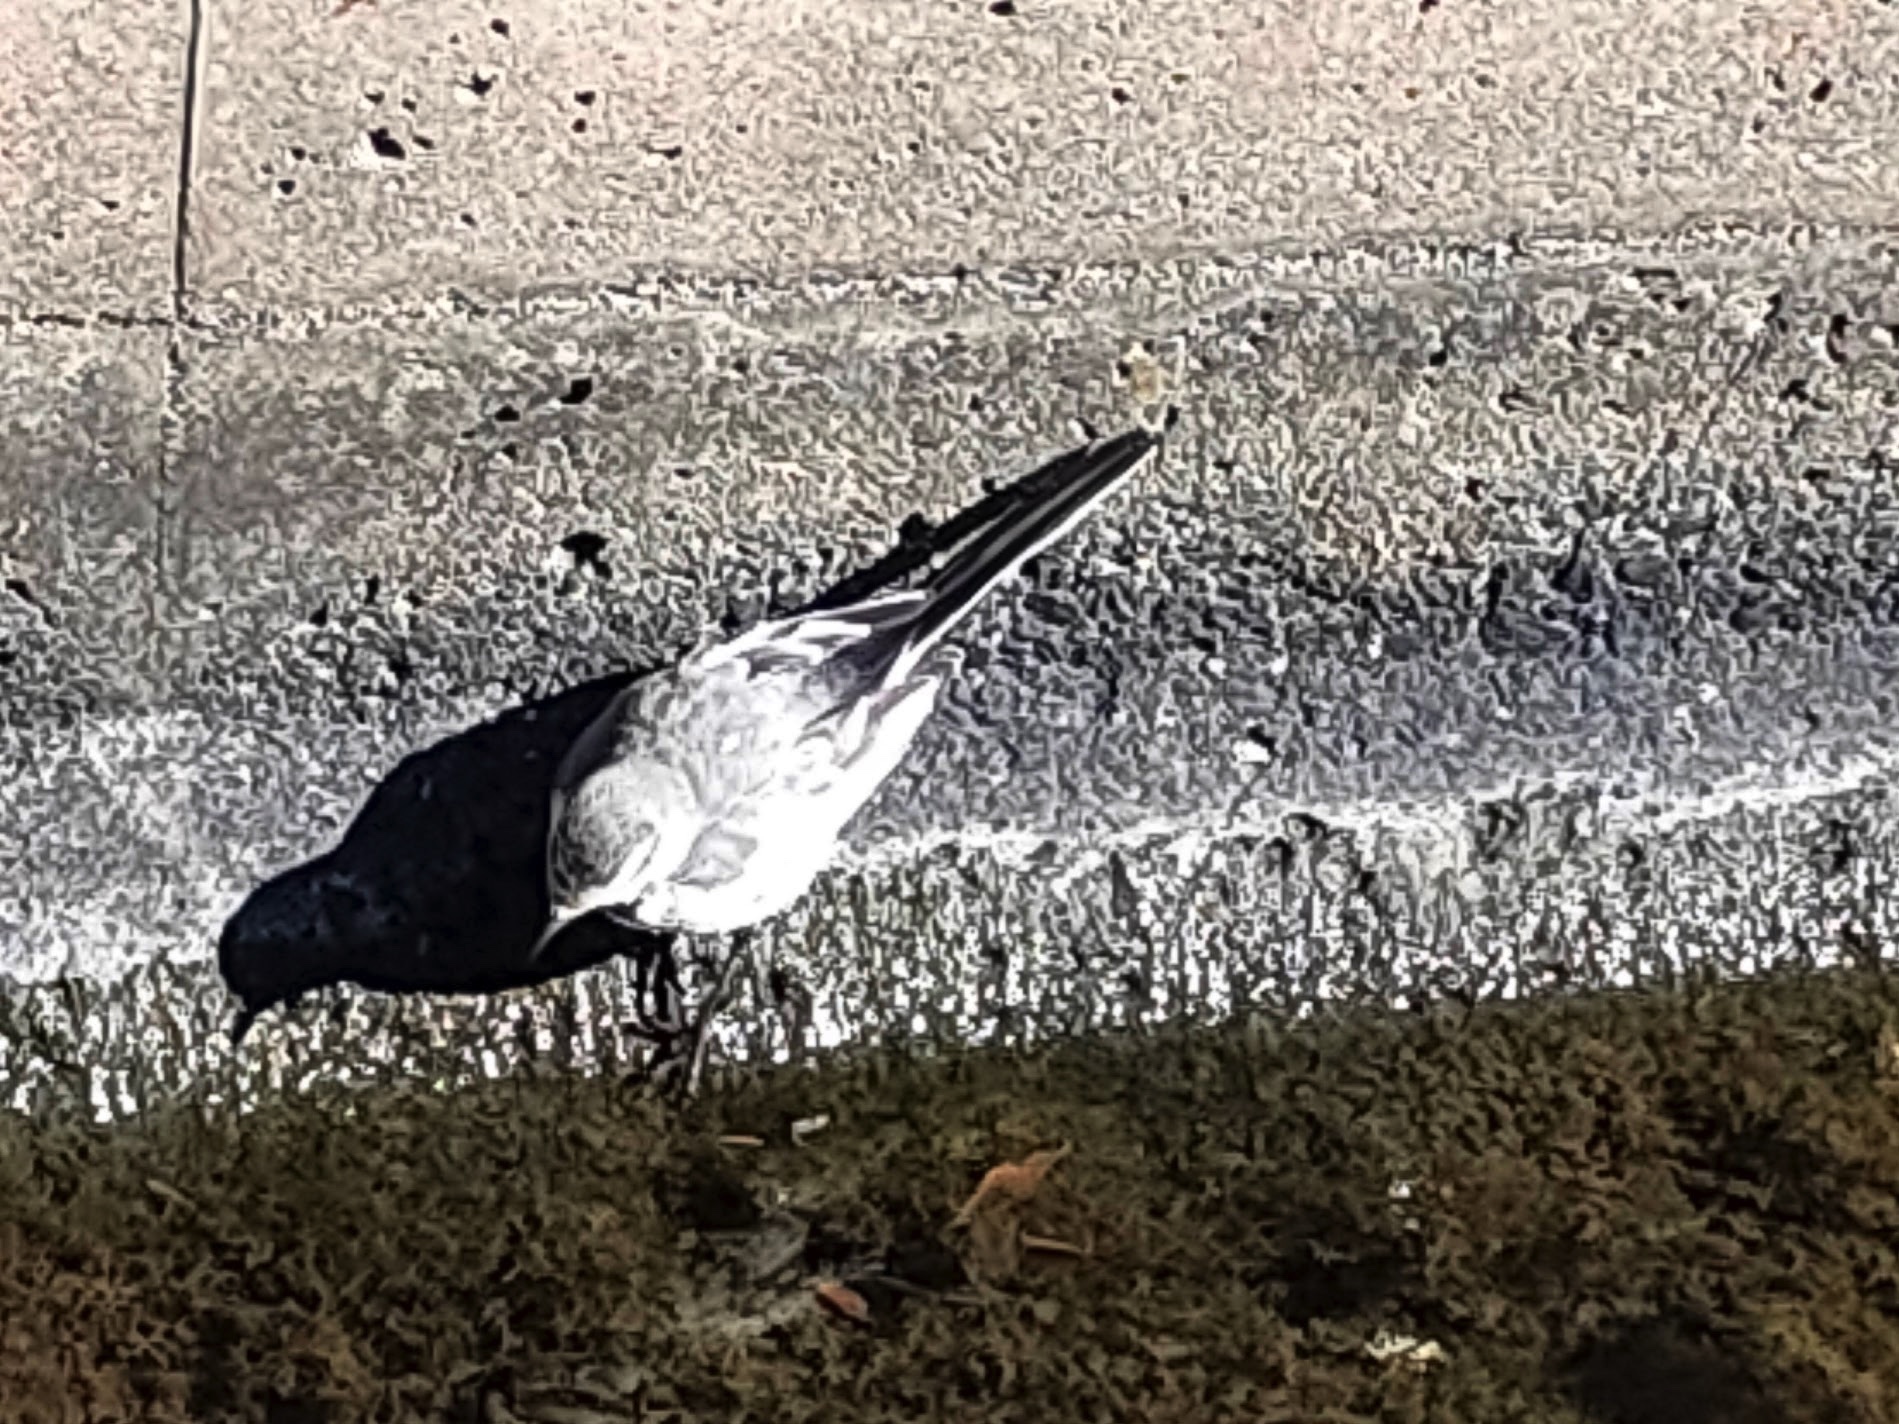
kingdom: Animalia
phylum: Chordata
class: Aves
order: Passeriformes
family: Motacillidae
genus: Motacilla
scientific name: Motacilla alba
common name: White wagtail
